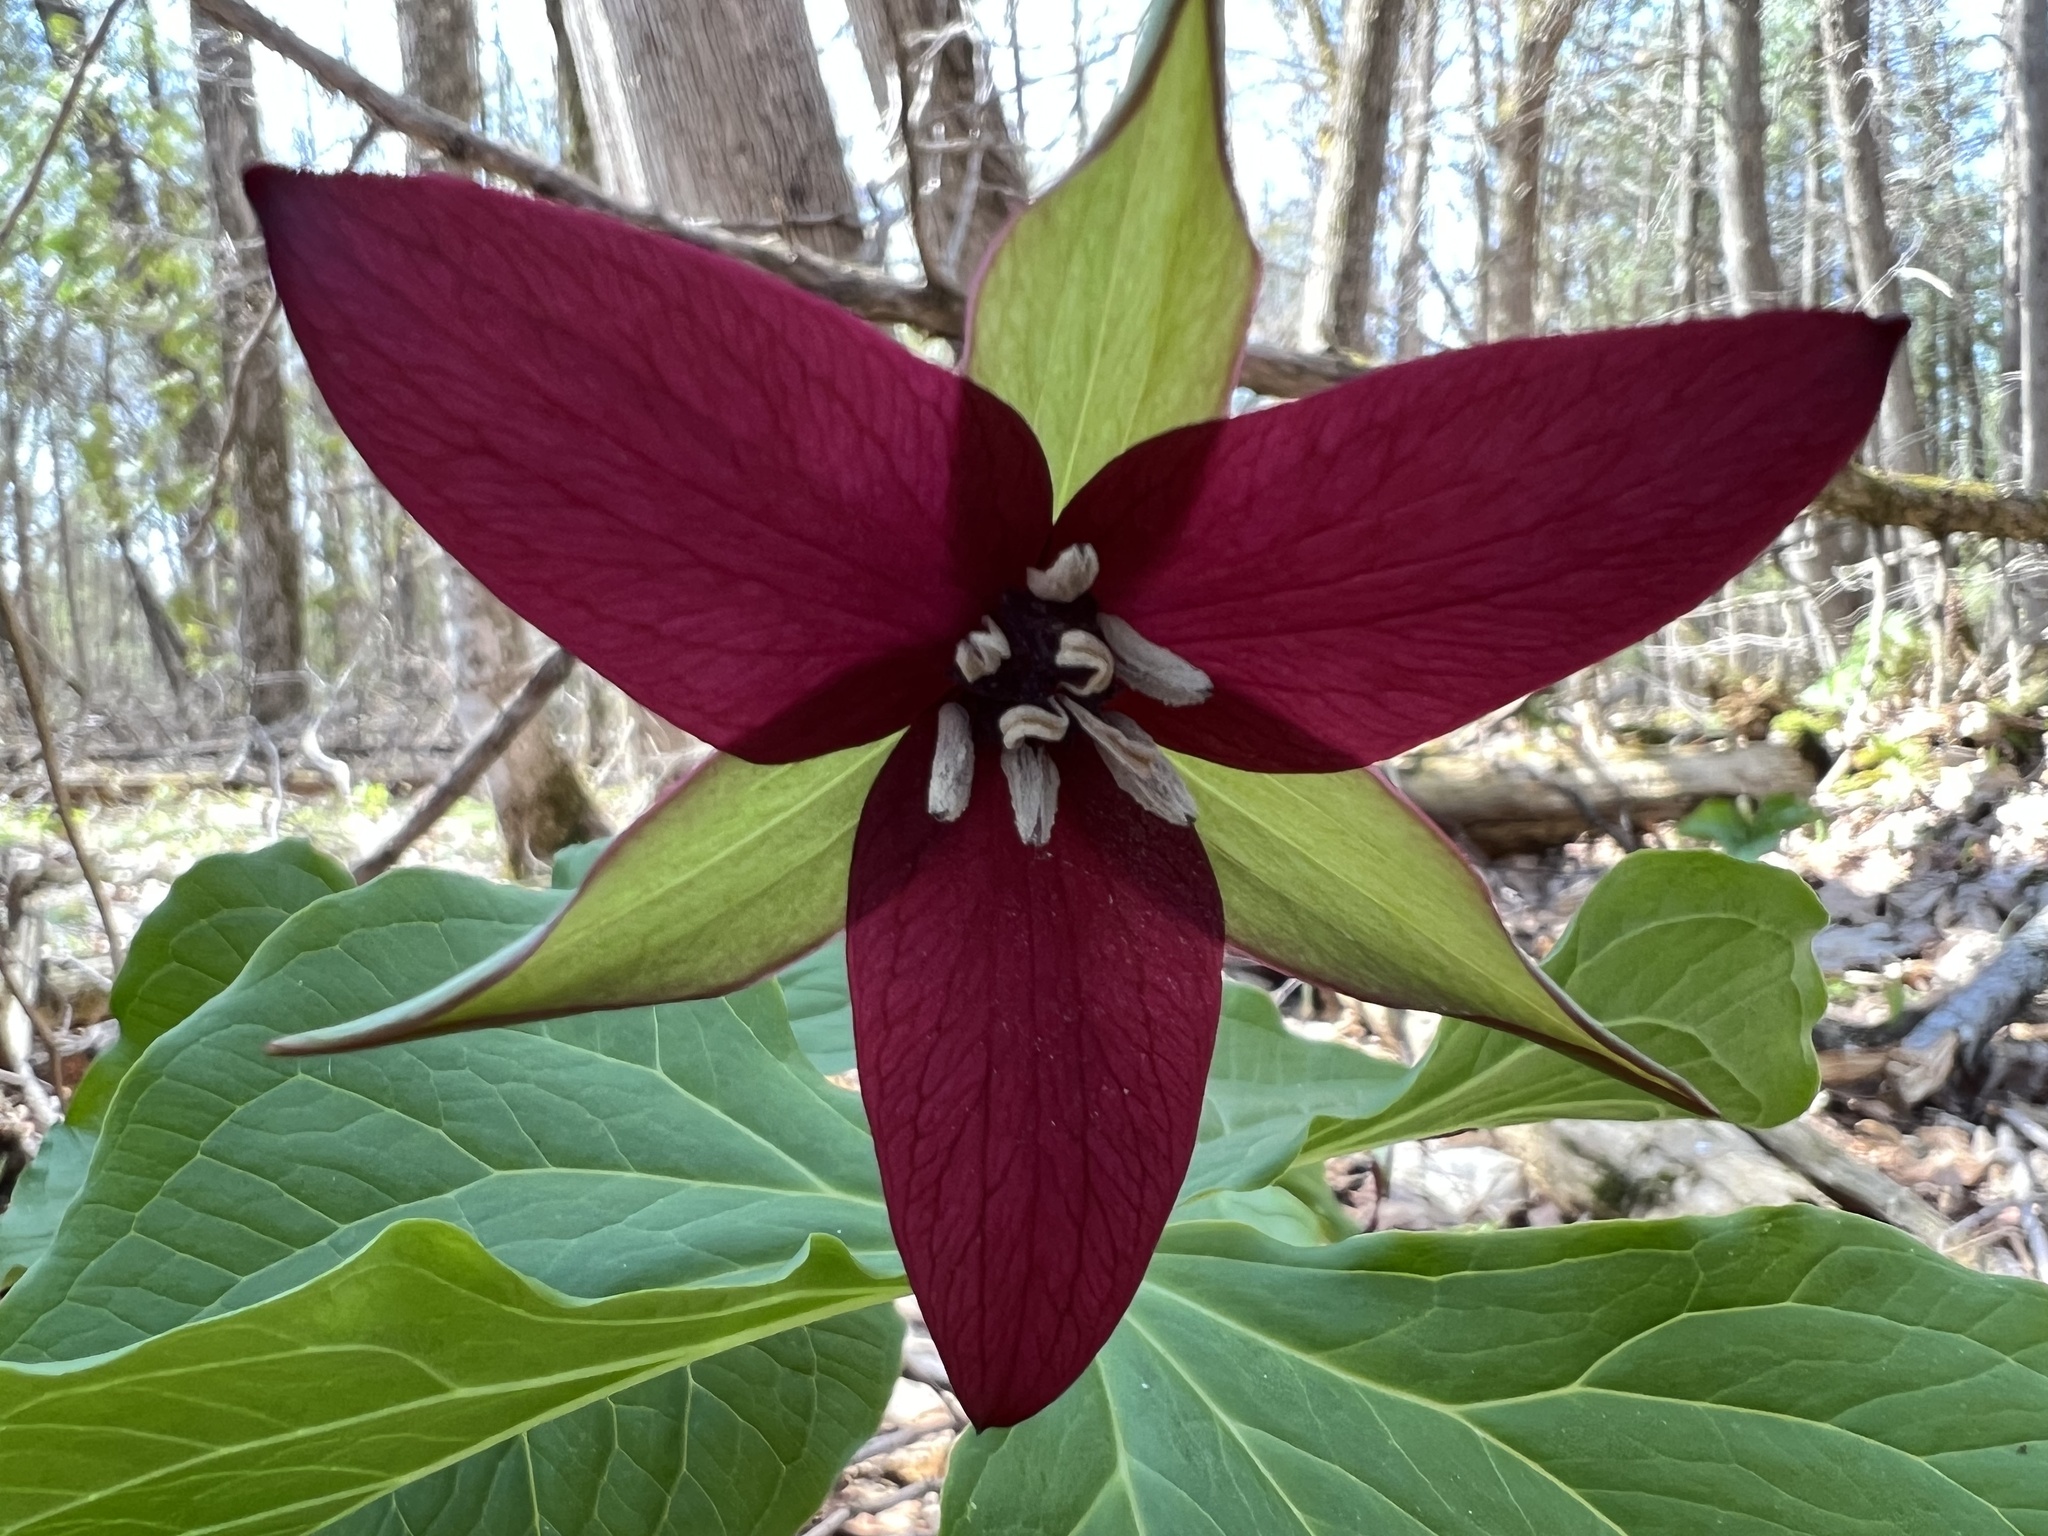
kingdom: Plantae
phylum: Tracheophyta
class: Liliopsida
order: Liliales
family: Melanthiaceae
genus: Trillium
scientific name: Trillium erectum
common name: Purple trillium
